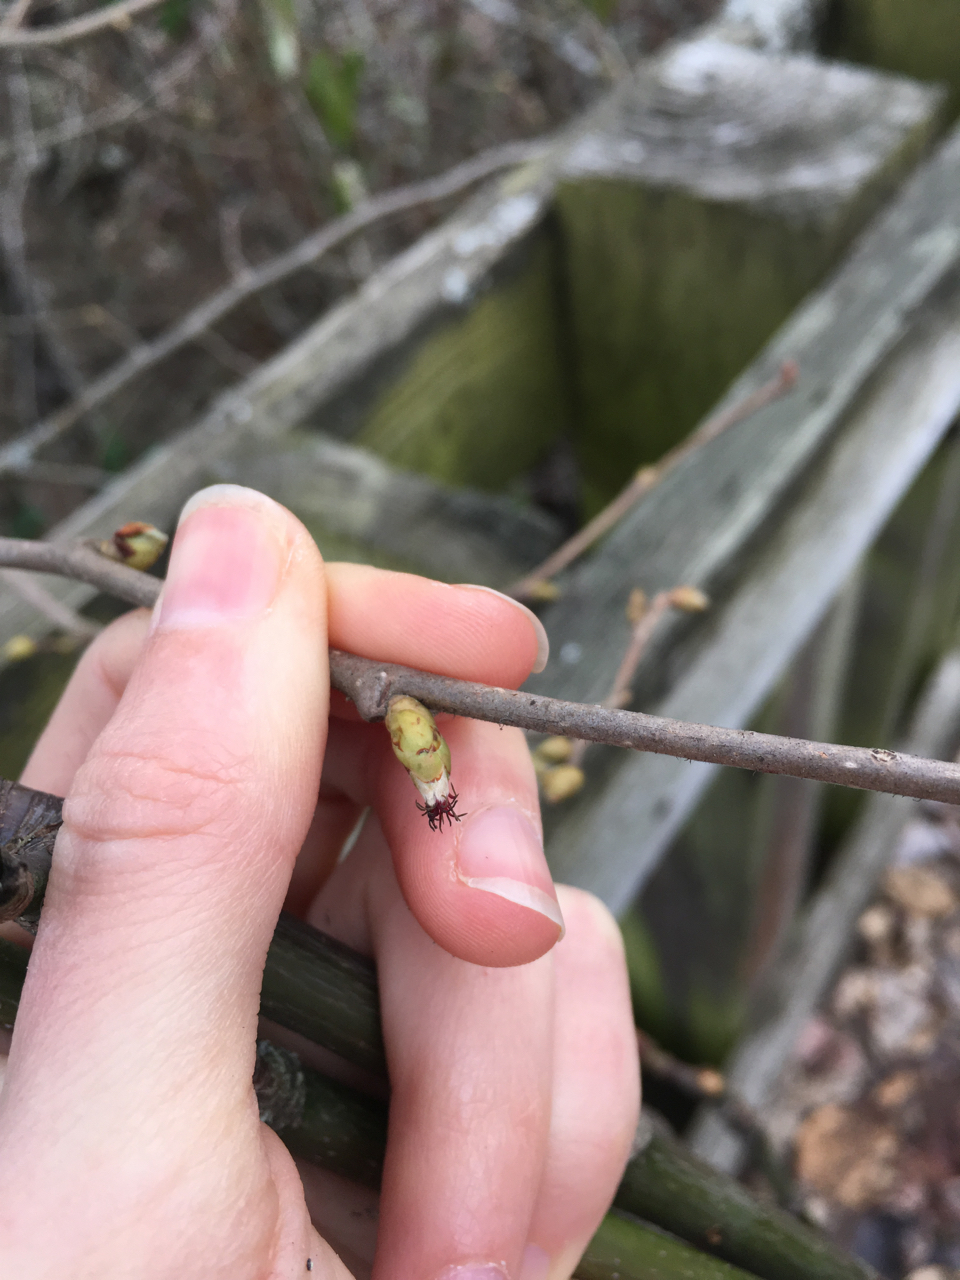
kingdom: Plantae
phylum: Tracheophyta
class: Magnoliopsida
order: Fagales
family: Betulaceae
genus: Corylus
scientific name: Corylus cornuta
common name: Beaked hazel
